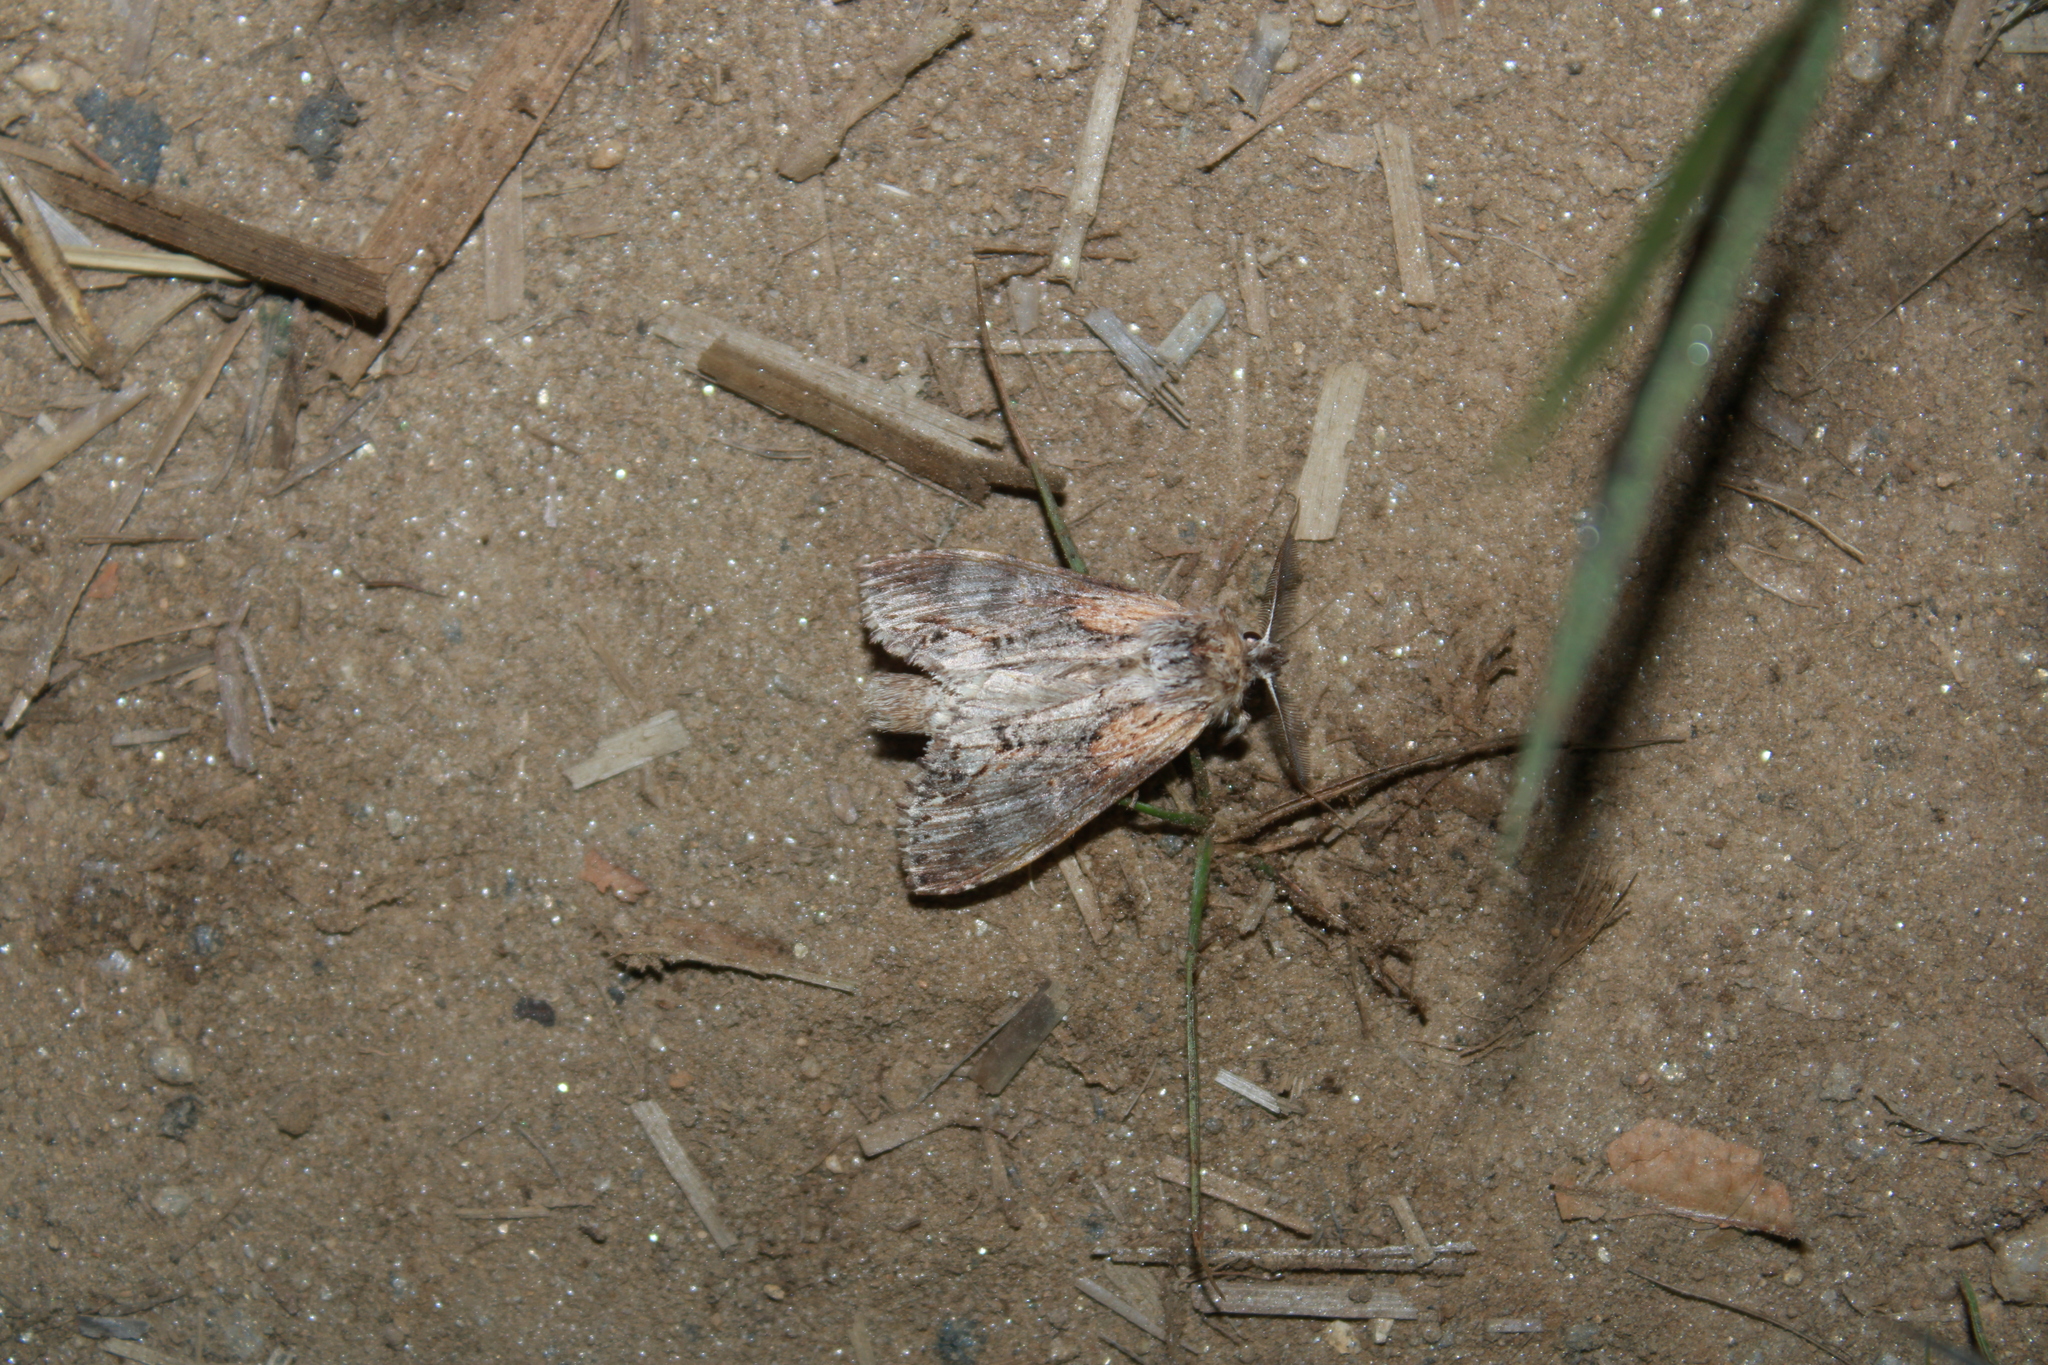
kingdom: Animalia
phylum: Arthropoda
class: Insecta
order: Lepidoptera
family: Notodontidae
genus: Dasylophia
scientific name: Dasylophia thyatiroides
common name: Gray-patched prominent
